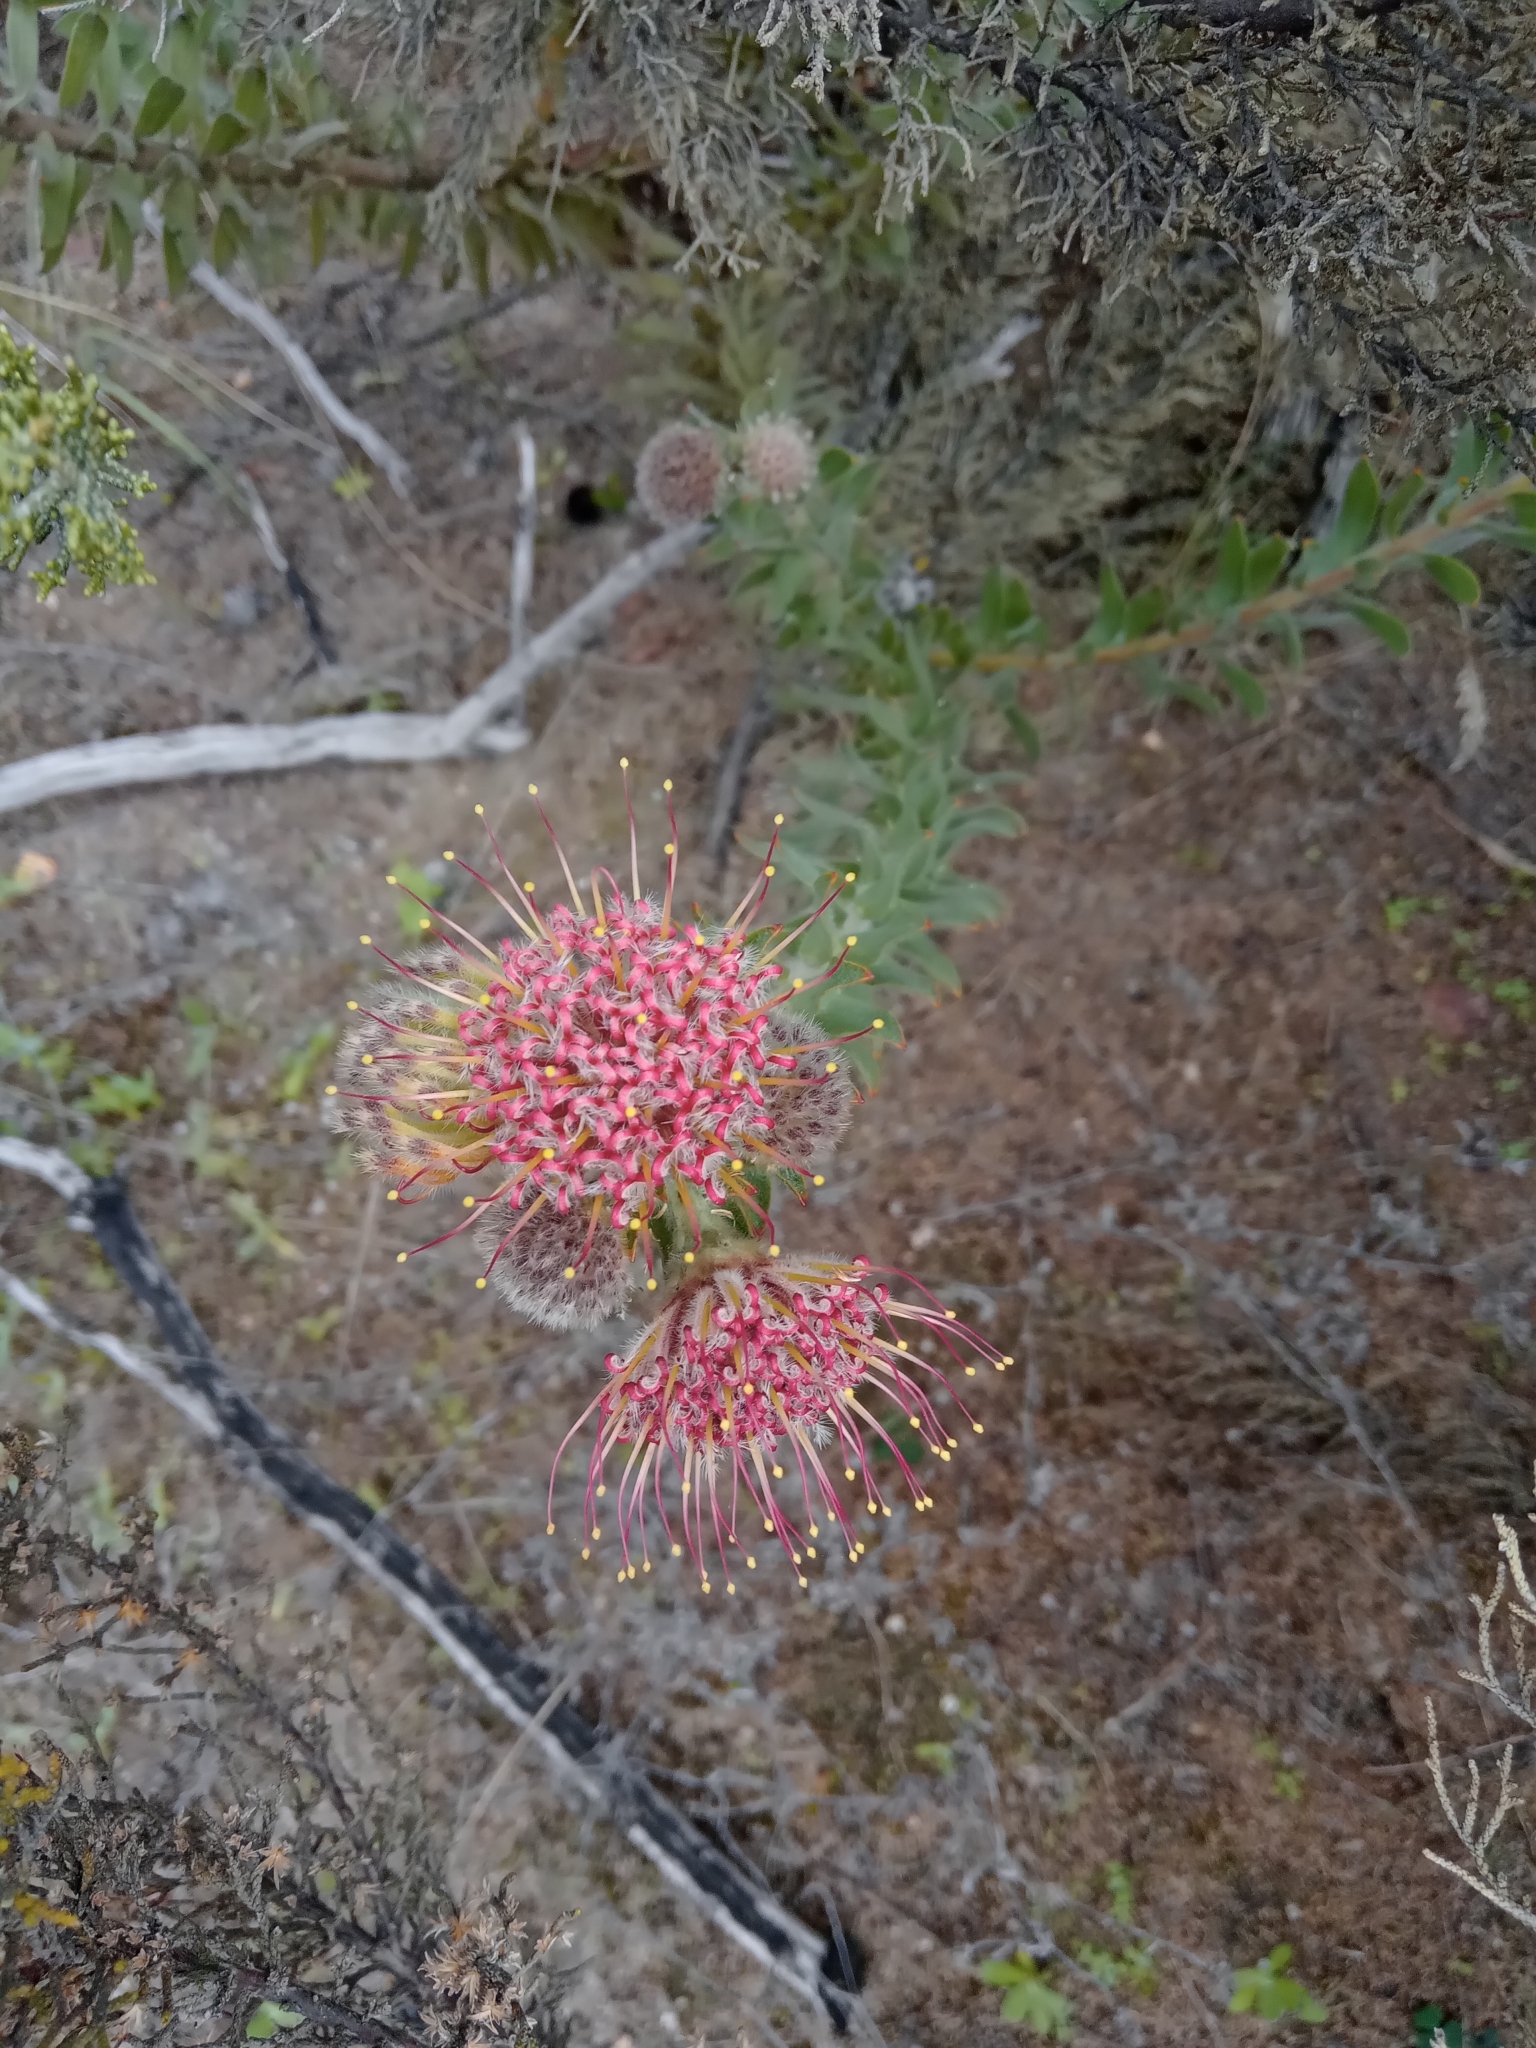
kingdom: Plantae
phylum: Tracheophyta
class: Magnoliopsida
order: Proteales
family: Proteaceae
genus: Leucospermum
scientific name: Leucospermum calligerum
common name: Arid pincushion
